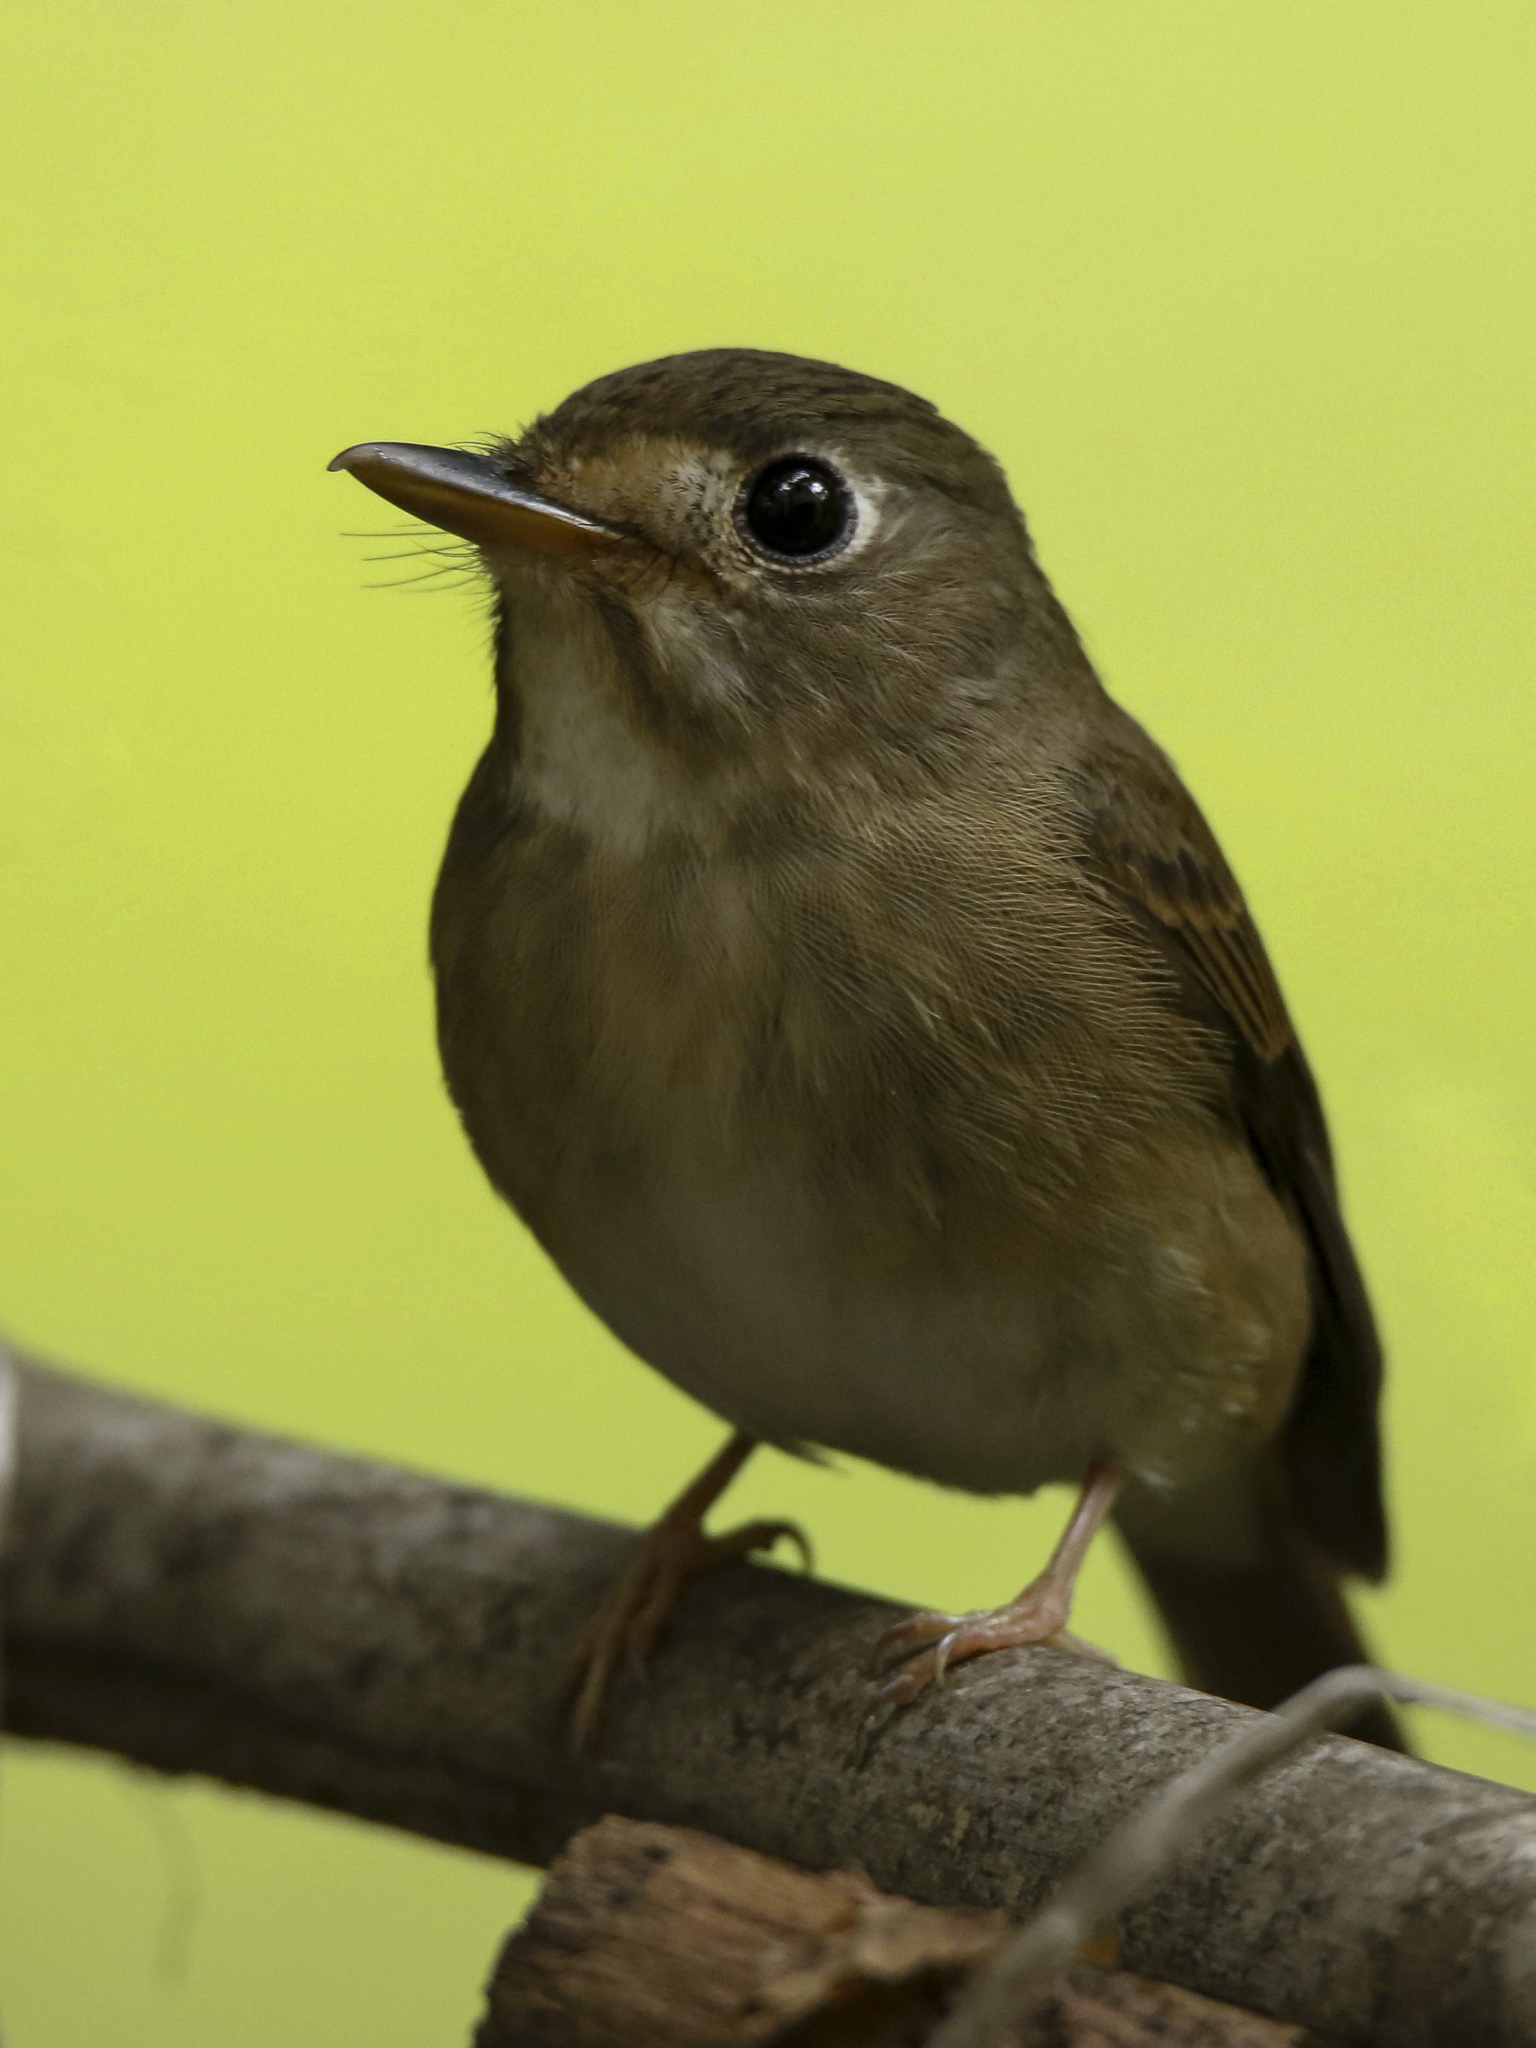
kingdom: Animalia
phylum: Chordata
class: Aves
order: Passeriformes
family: Muscicapidae
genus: Muscicapa
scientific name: Muscicapa muttui
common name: Brown-breasted flycatcher
